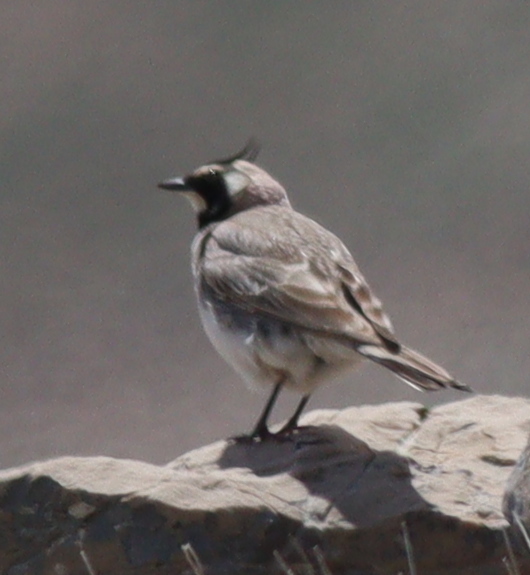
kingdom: Animalia
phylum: Chordata
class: Aves
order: Passeriformes
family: Alaudidae
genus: Eremophila
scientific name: Eremophila alpestris
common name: Horned lark
